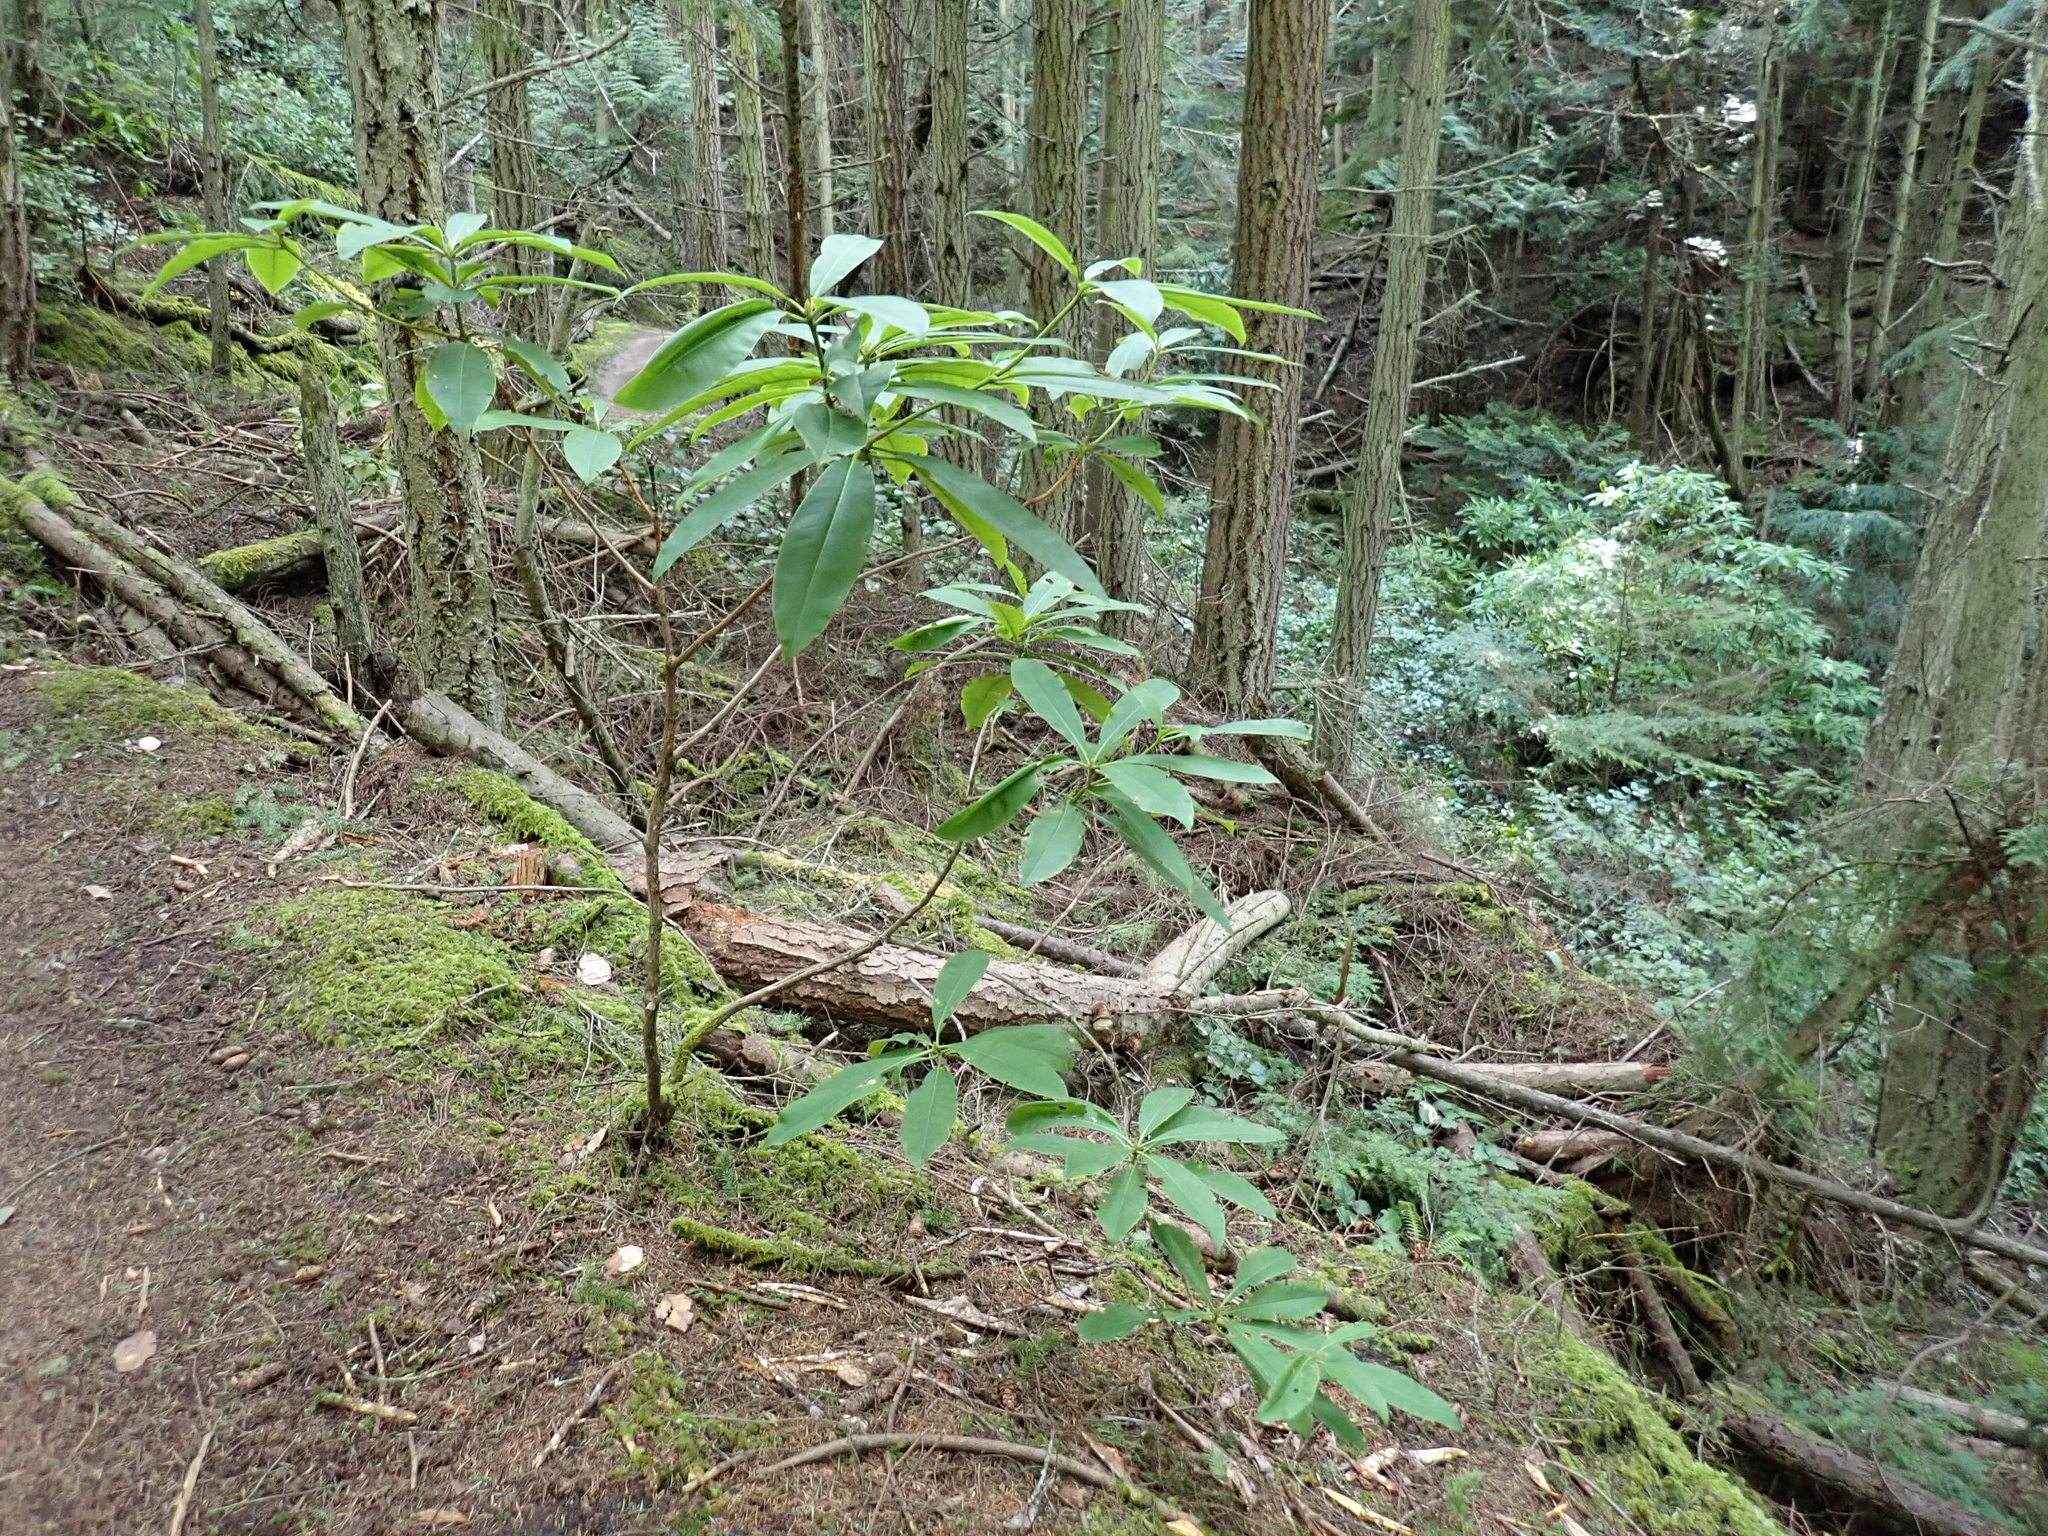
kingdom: Plantae
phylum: Tracheophyta
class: Magnoliopsida
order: Ericales
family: Ericaceae
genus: Rhododendron
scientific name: Rhododendron macrophyllum
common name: California rose bay
